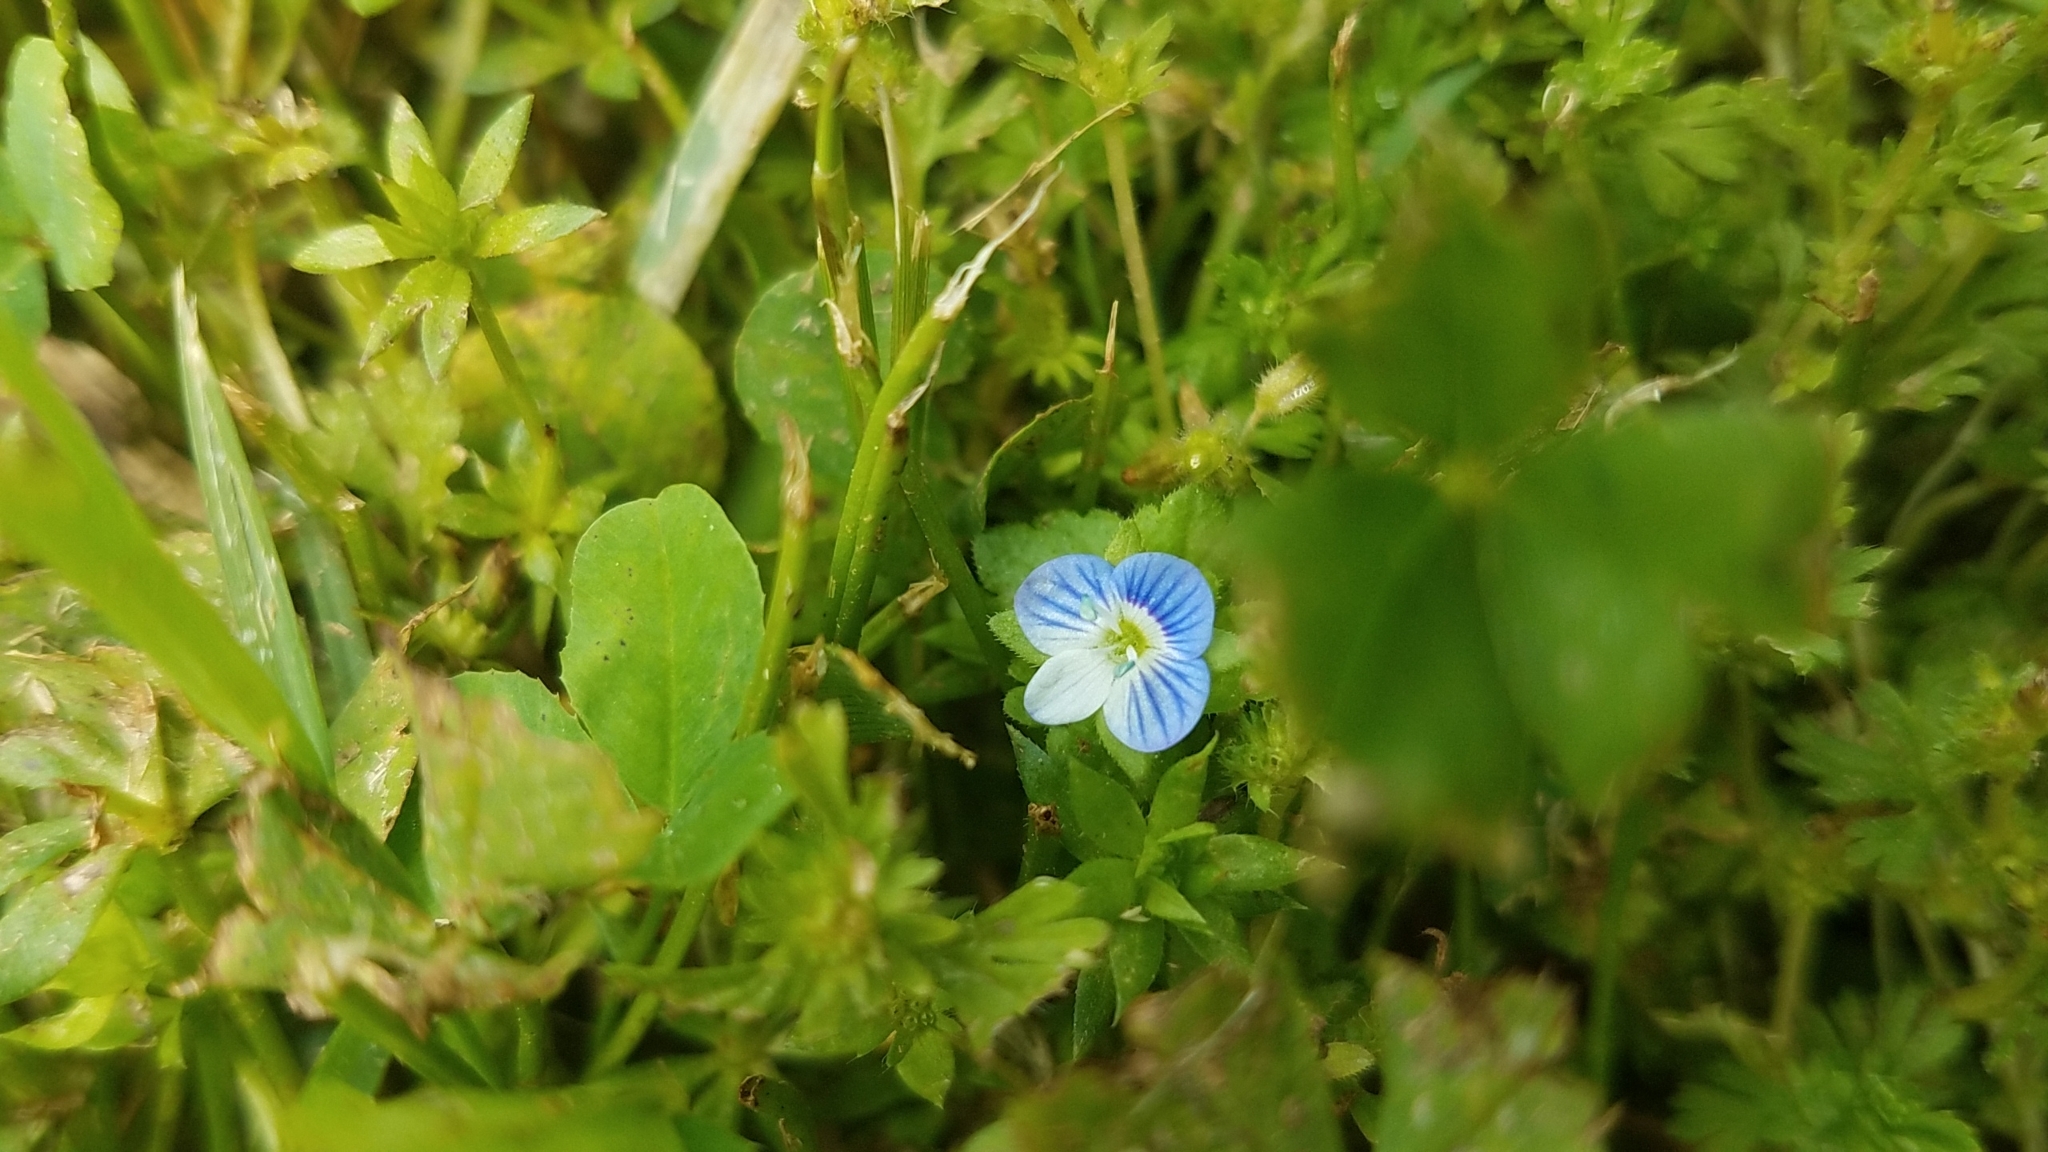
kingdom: Plantae
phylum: Tracheophyta
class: Magnoliopsida
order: Lamiales
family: Plantaginaceae
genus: Veronica
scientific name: Veronica persica
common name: Common field-speedwell
